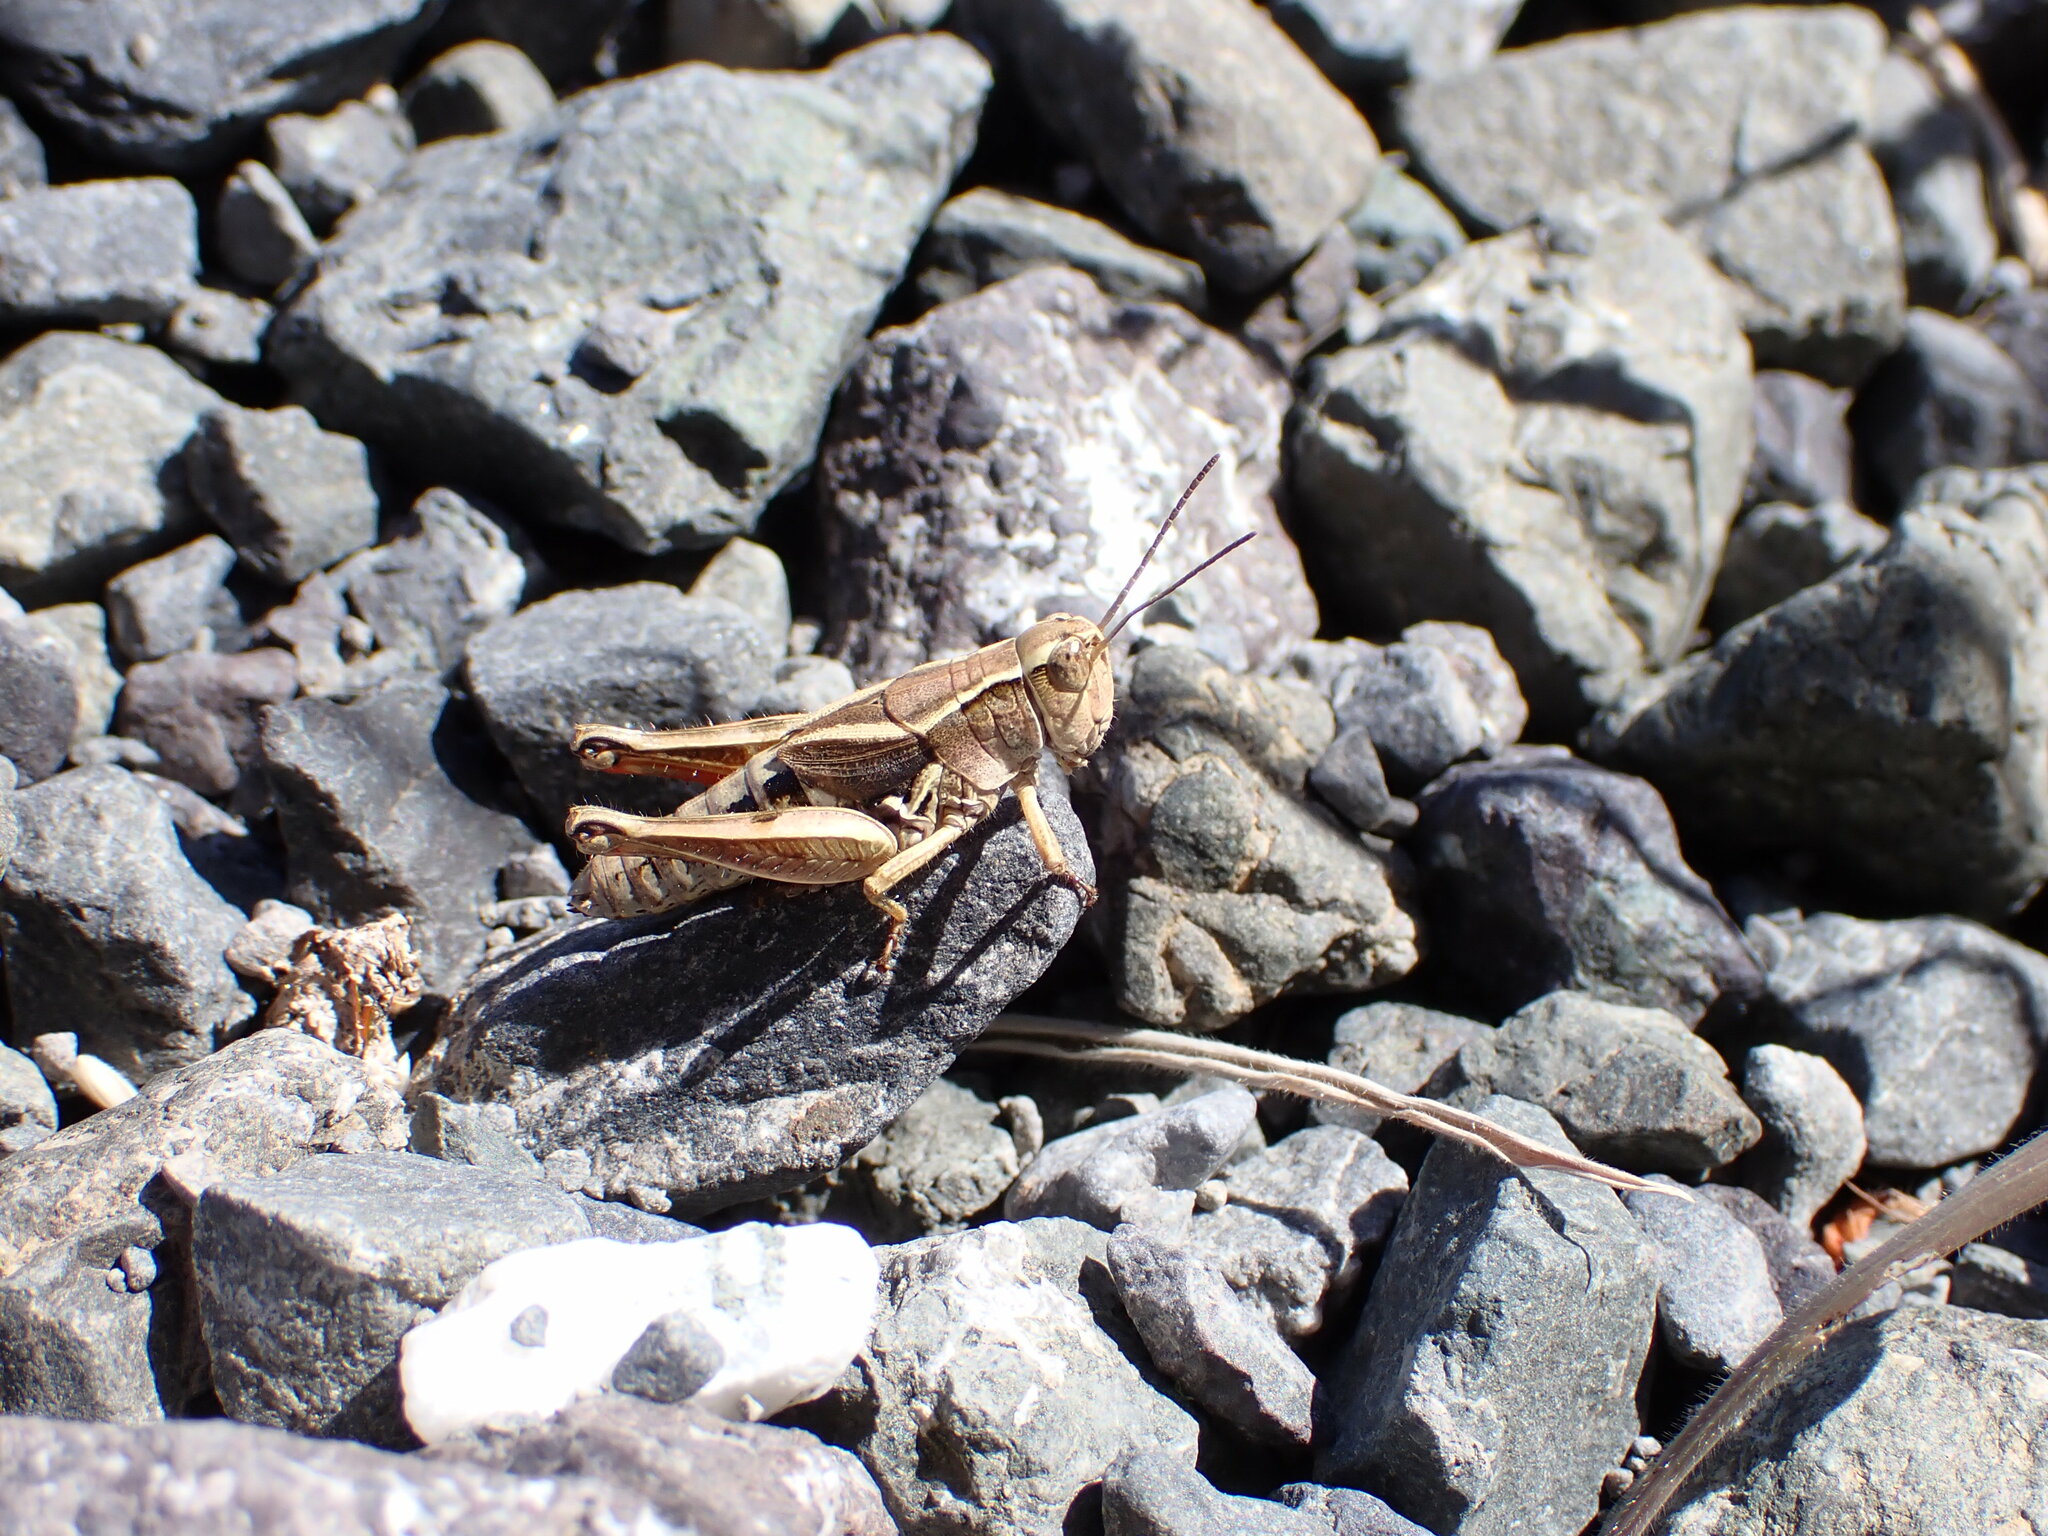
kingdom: Animalia
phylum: Arthropoda
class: Insecta
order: Orthoptera
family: Acrididae
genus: Phaulacridium
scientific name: Phaulacridium marginale
